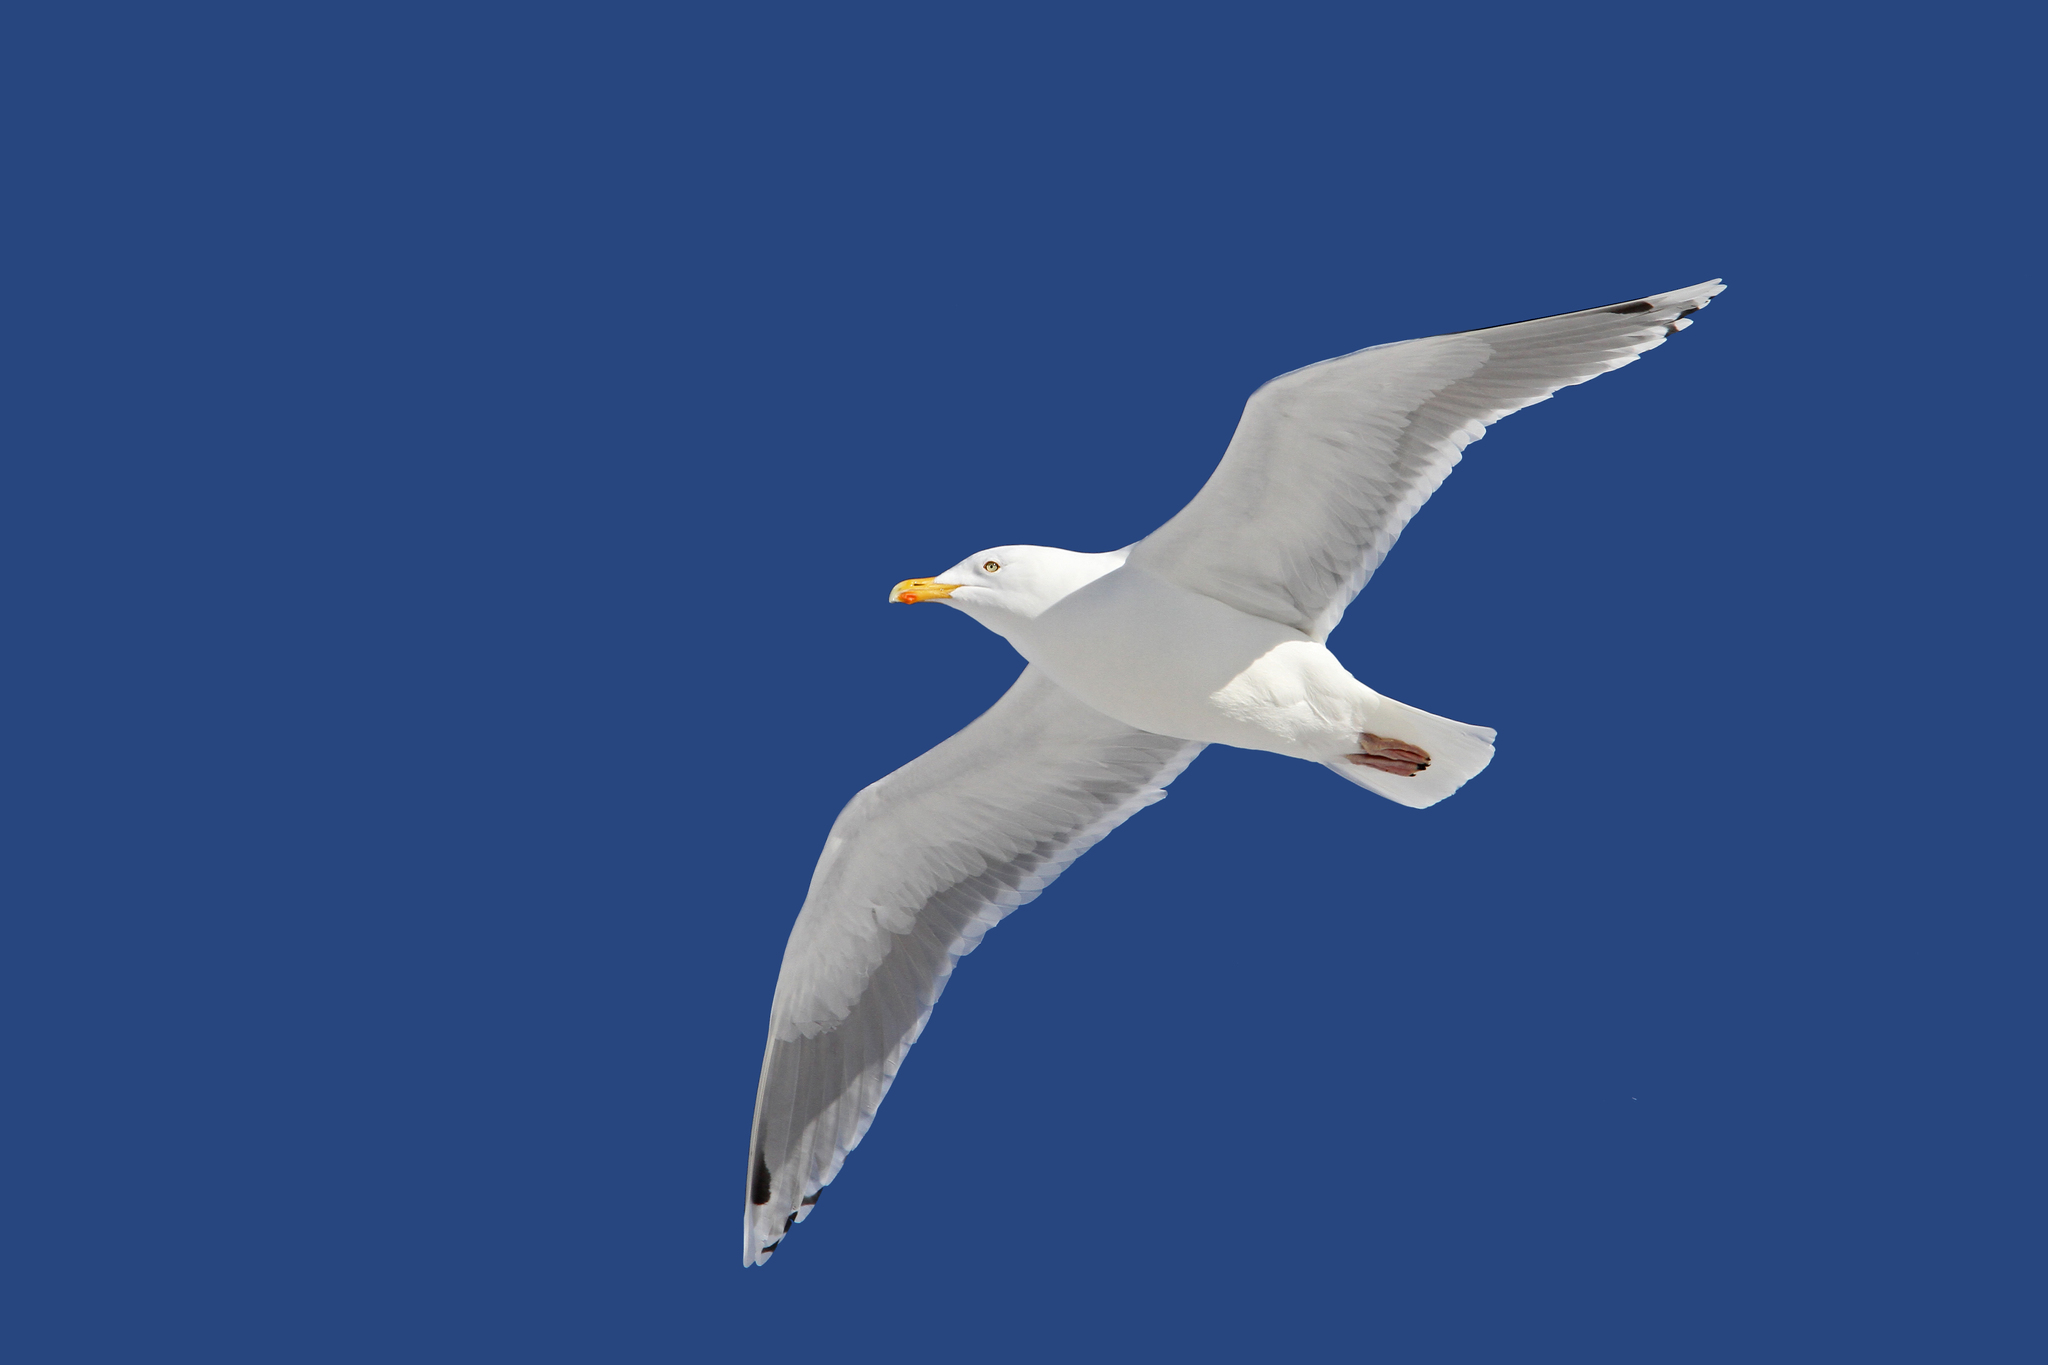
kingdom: Animalia
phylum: Chordata
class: Aves
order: Charadriiformes
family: Laridae
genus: Larus
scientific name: Larus argentatus
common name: Herring gull
